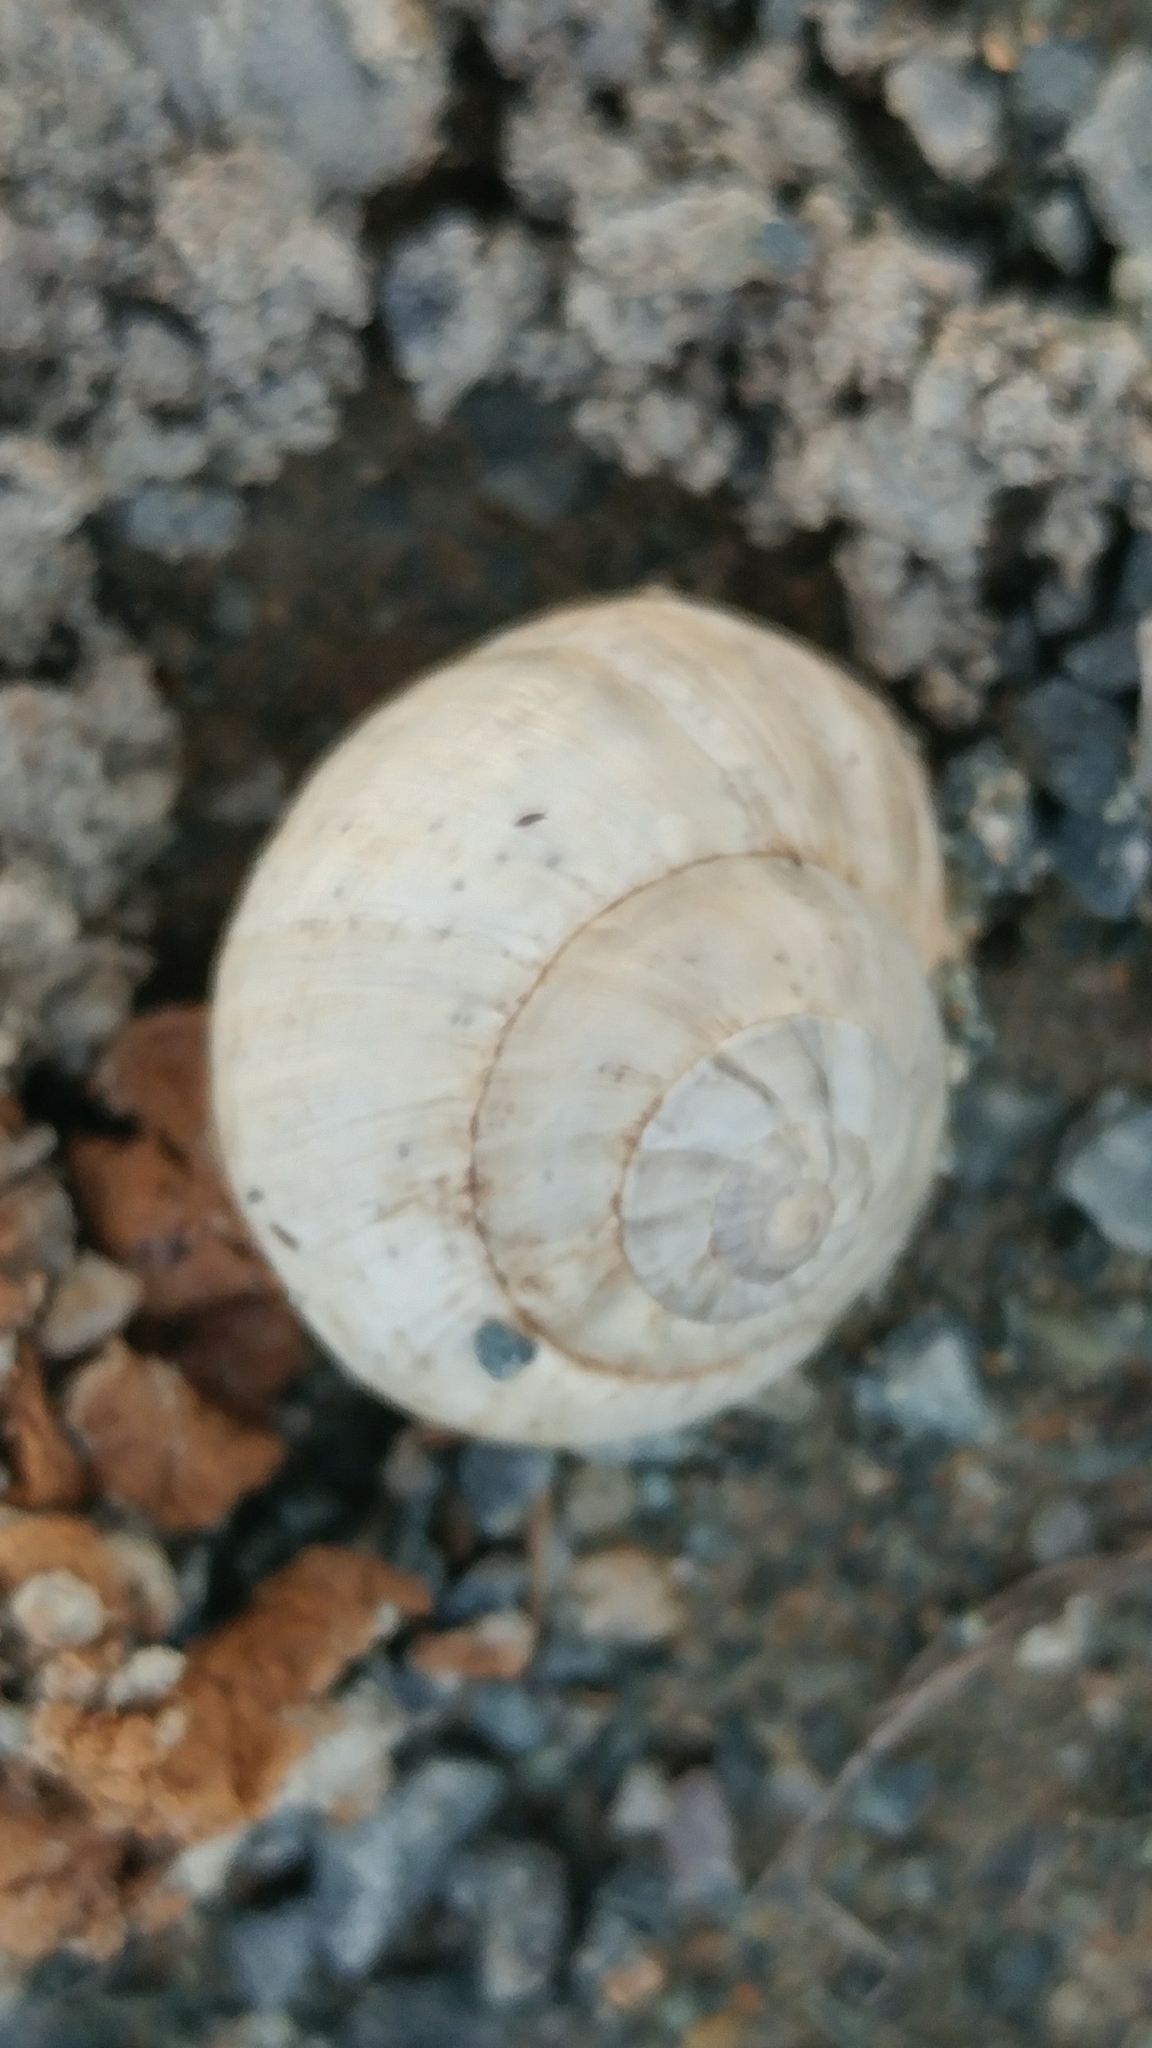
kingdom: Animalia
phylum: Mollusca
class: Gastropoda
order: Stylommatophora
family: Helicidae
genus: Theba
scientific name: Theba pisana
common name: White snail
